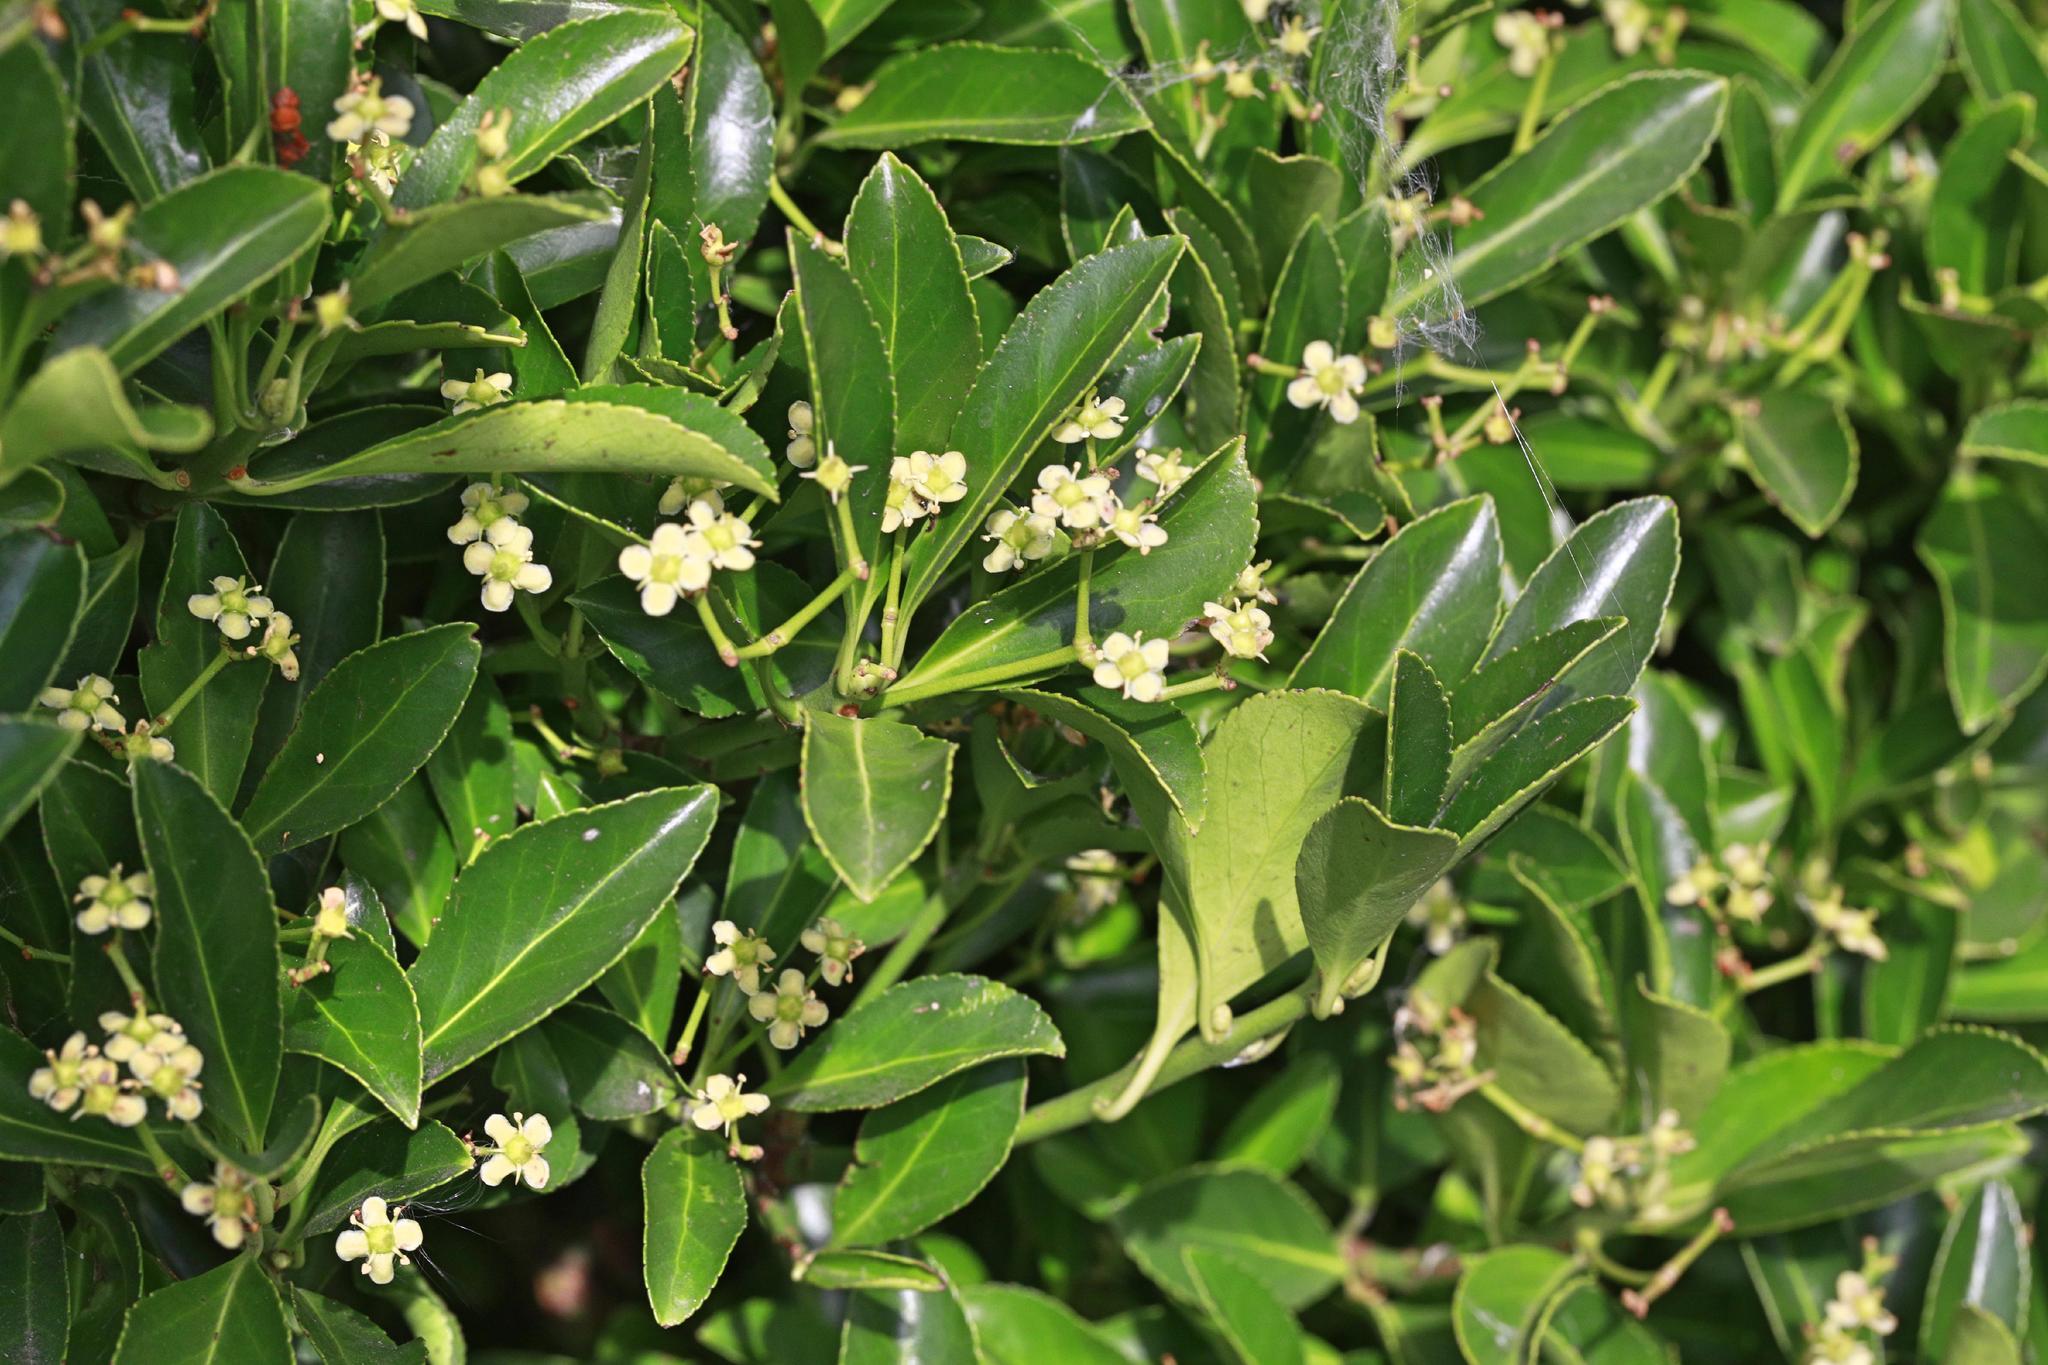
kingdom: Plantae
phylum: Tracheophyta
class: Magnoliopsida
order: Celastrales
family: Celastraceae
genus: Euonymus
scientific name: Euonymus japonicus
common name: Japanese spindletree
